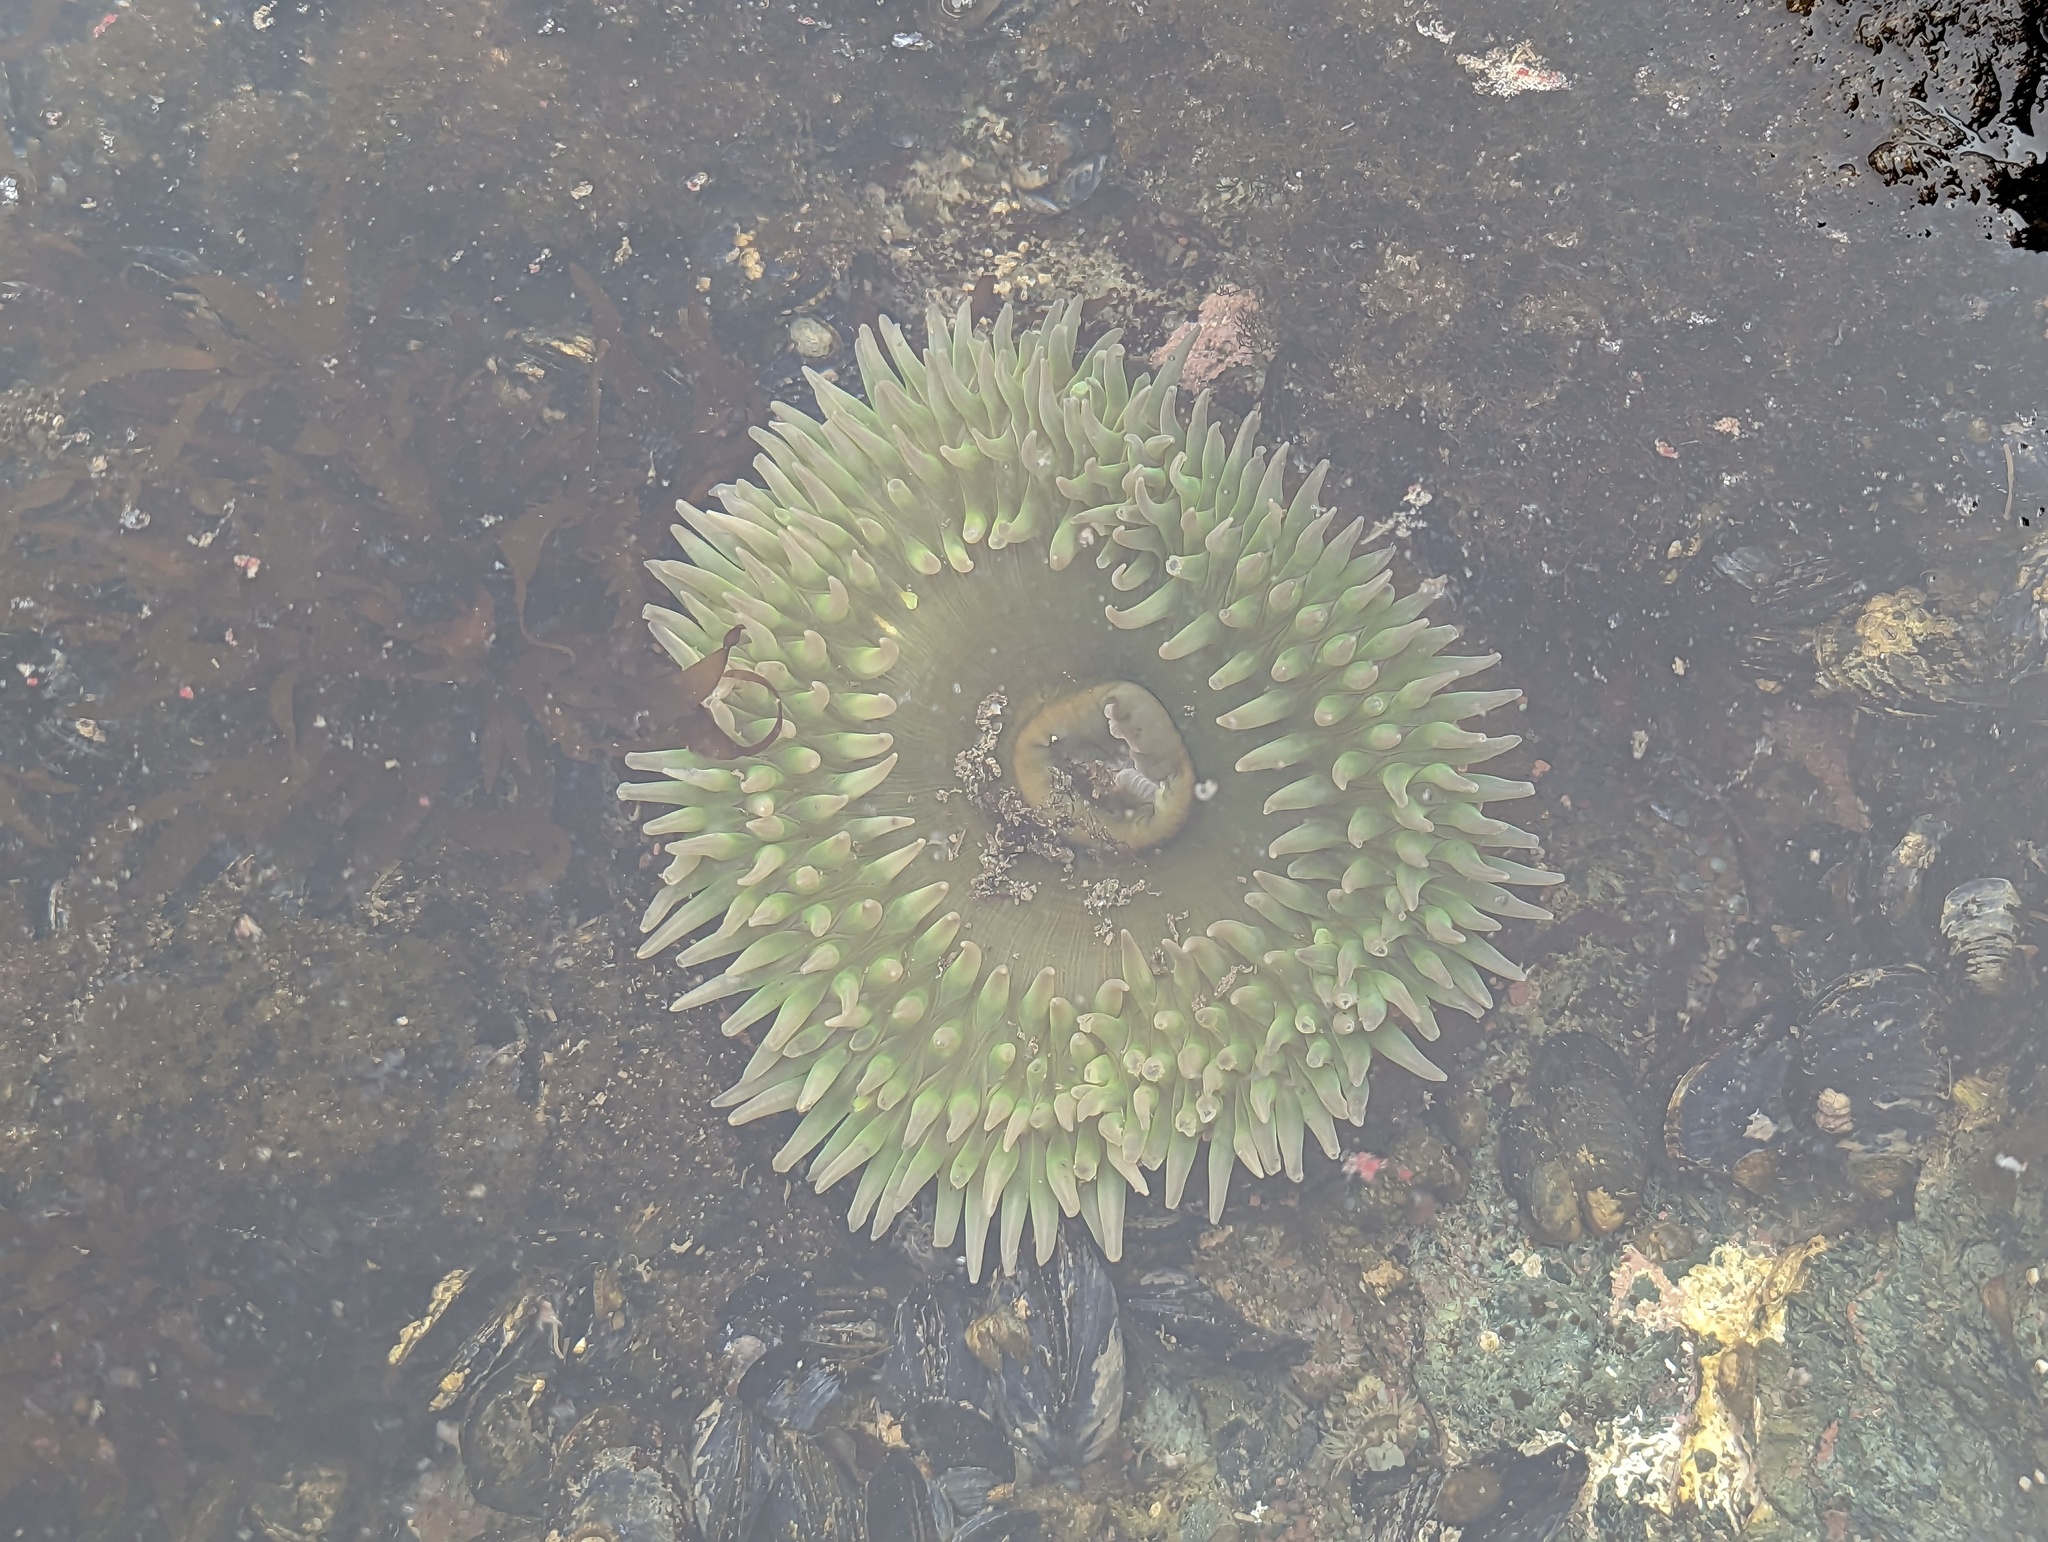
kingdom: Animalia
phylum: Cnidaria
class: Anthozoa
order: Actiniaria
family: Actiniidae
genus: Anthopleura
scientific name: Anthopleura xanthogrammica
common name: Giant green anemone
